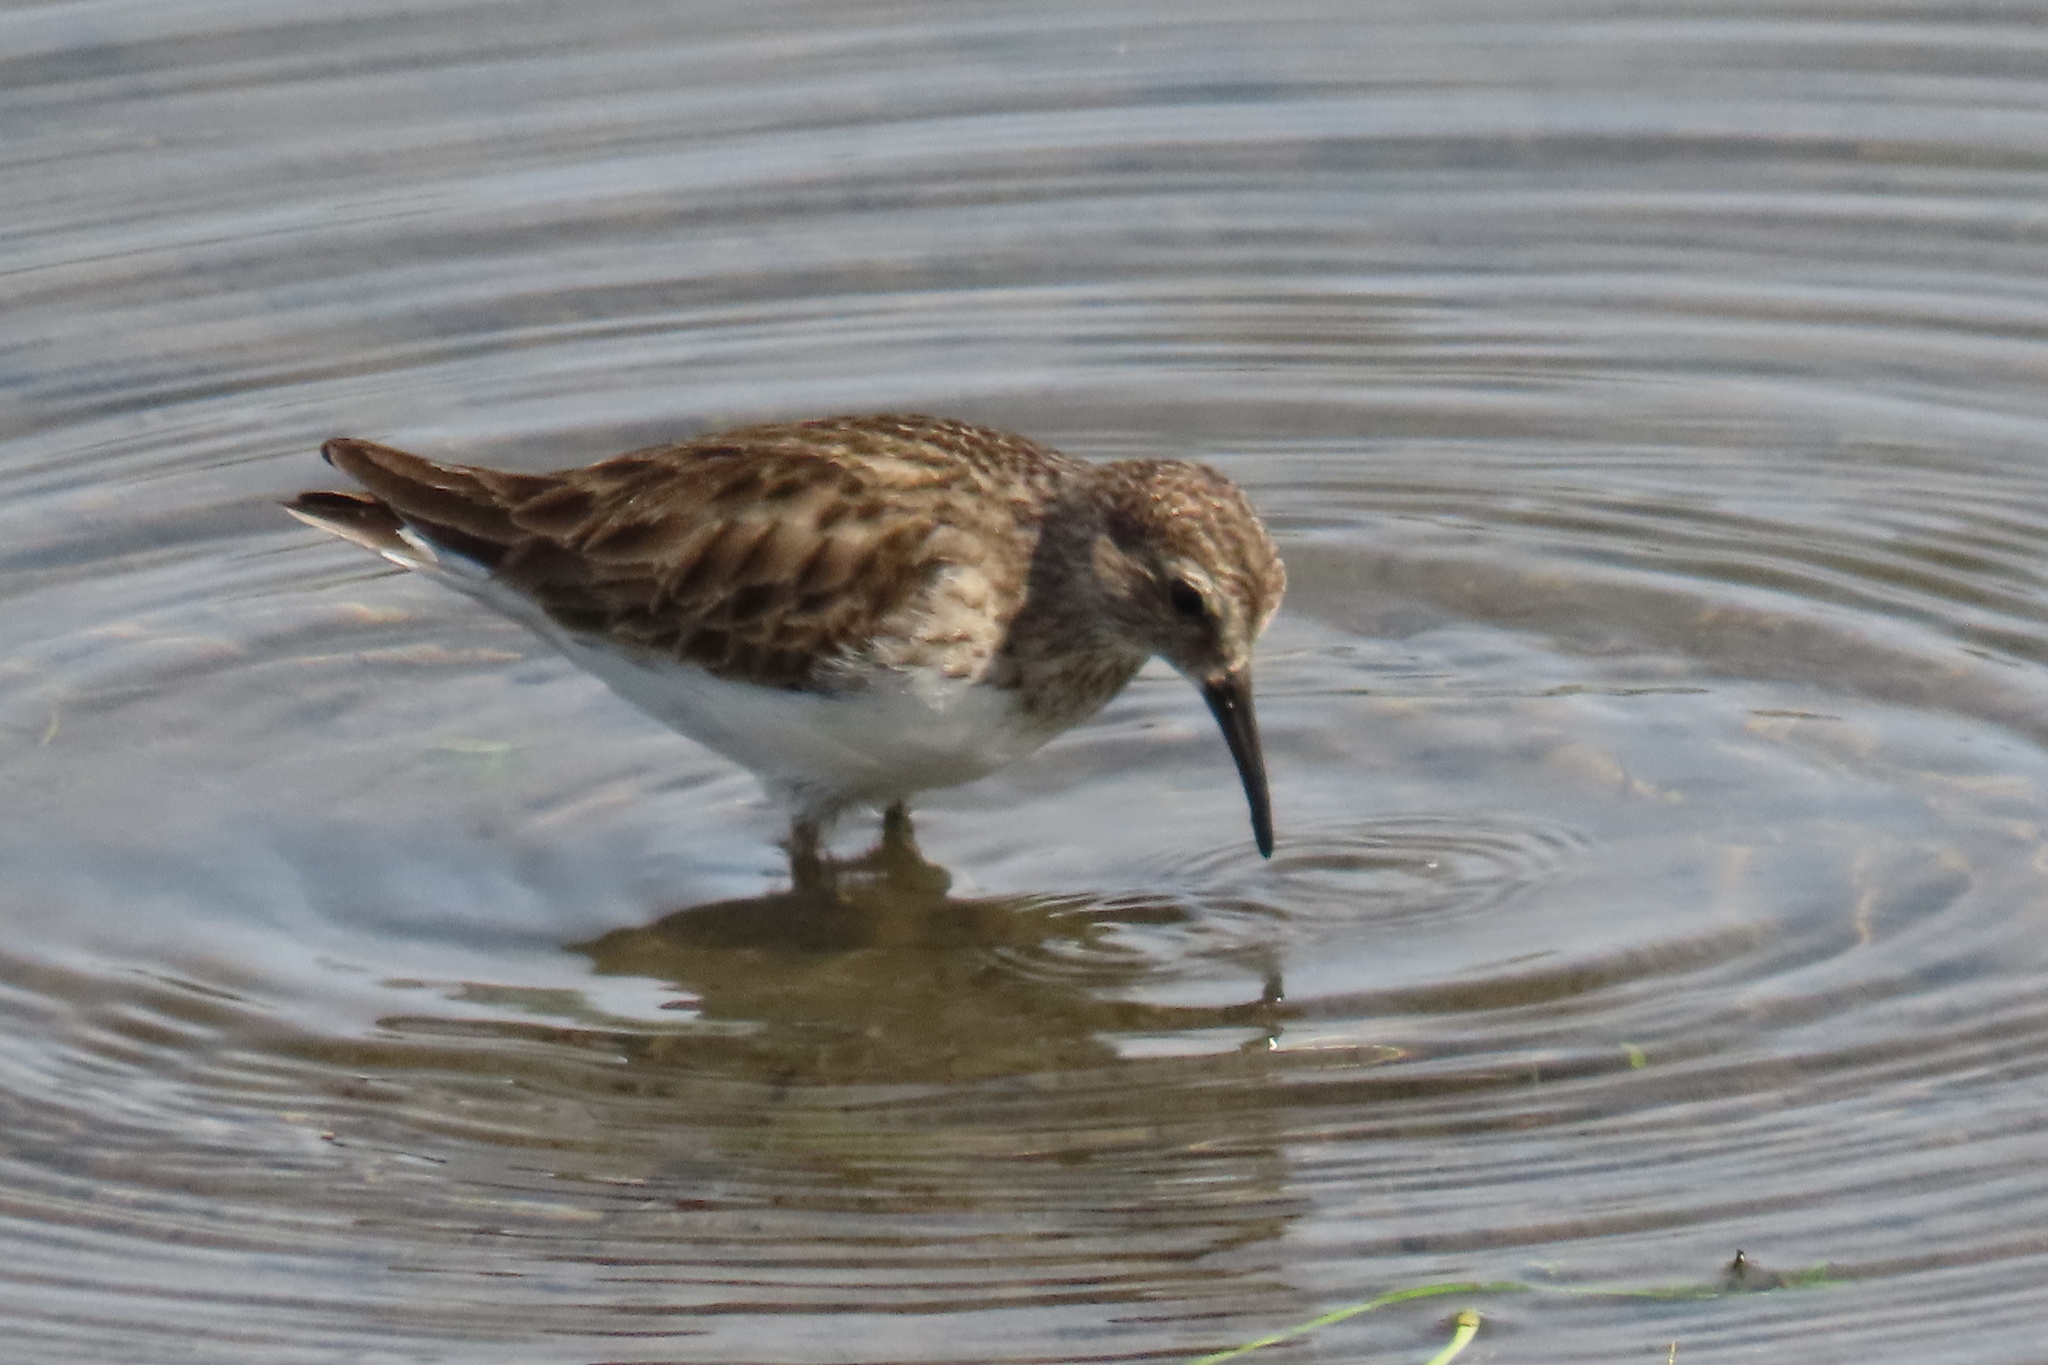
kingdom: Animalia
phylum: Chordata
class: Aves
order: Charadriiformes
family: Scolopacidae
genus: Calidris
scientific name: Calidris minutilla
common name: Least sandpiper
